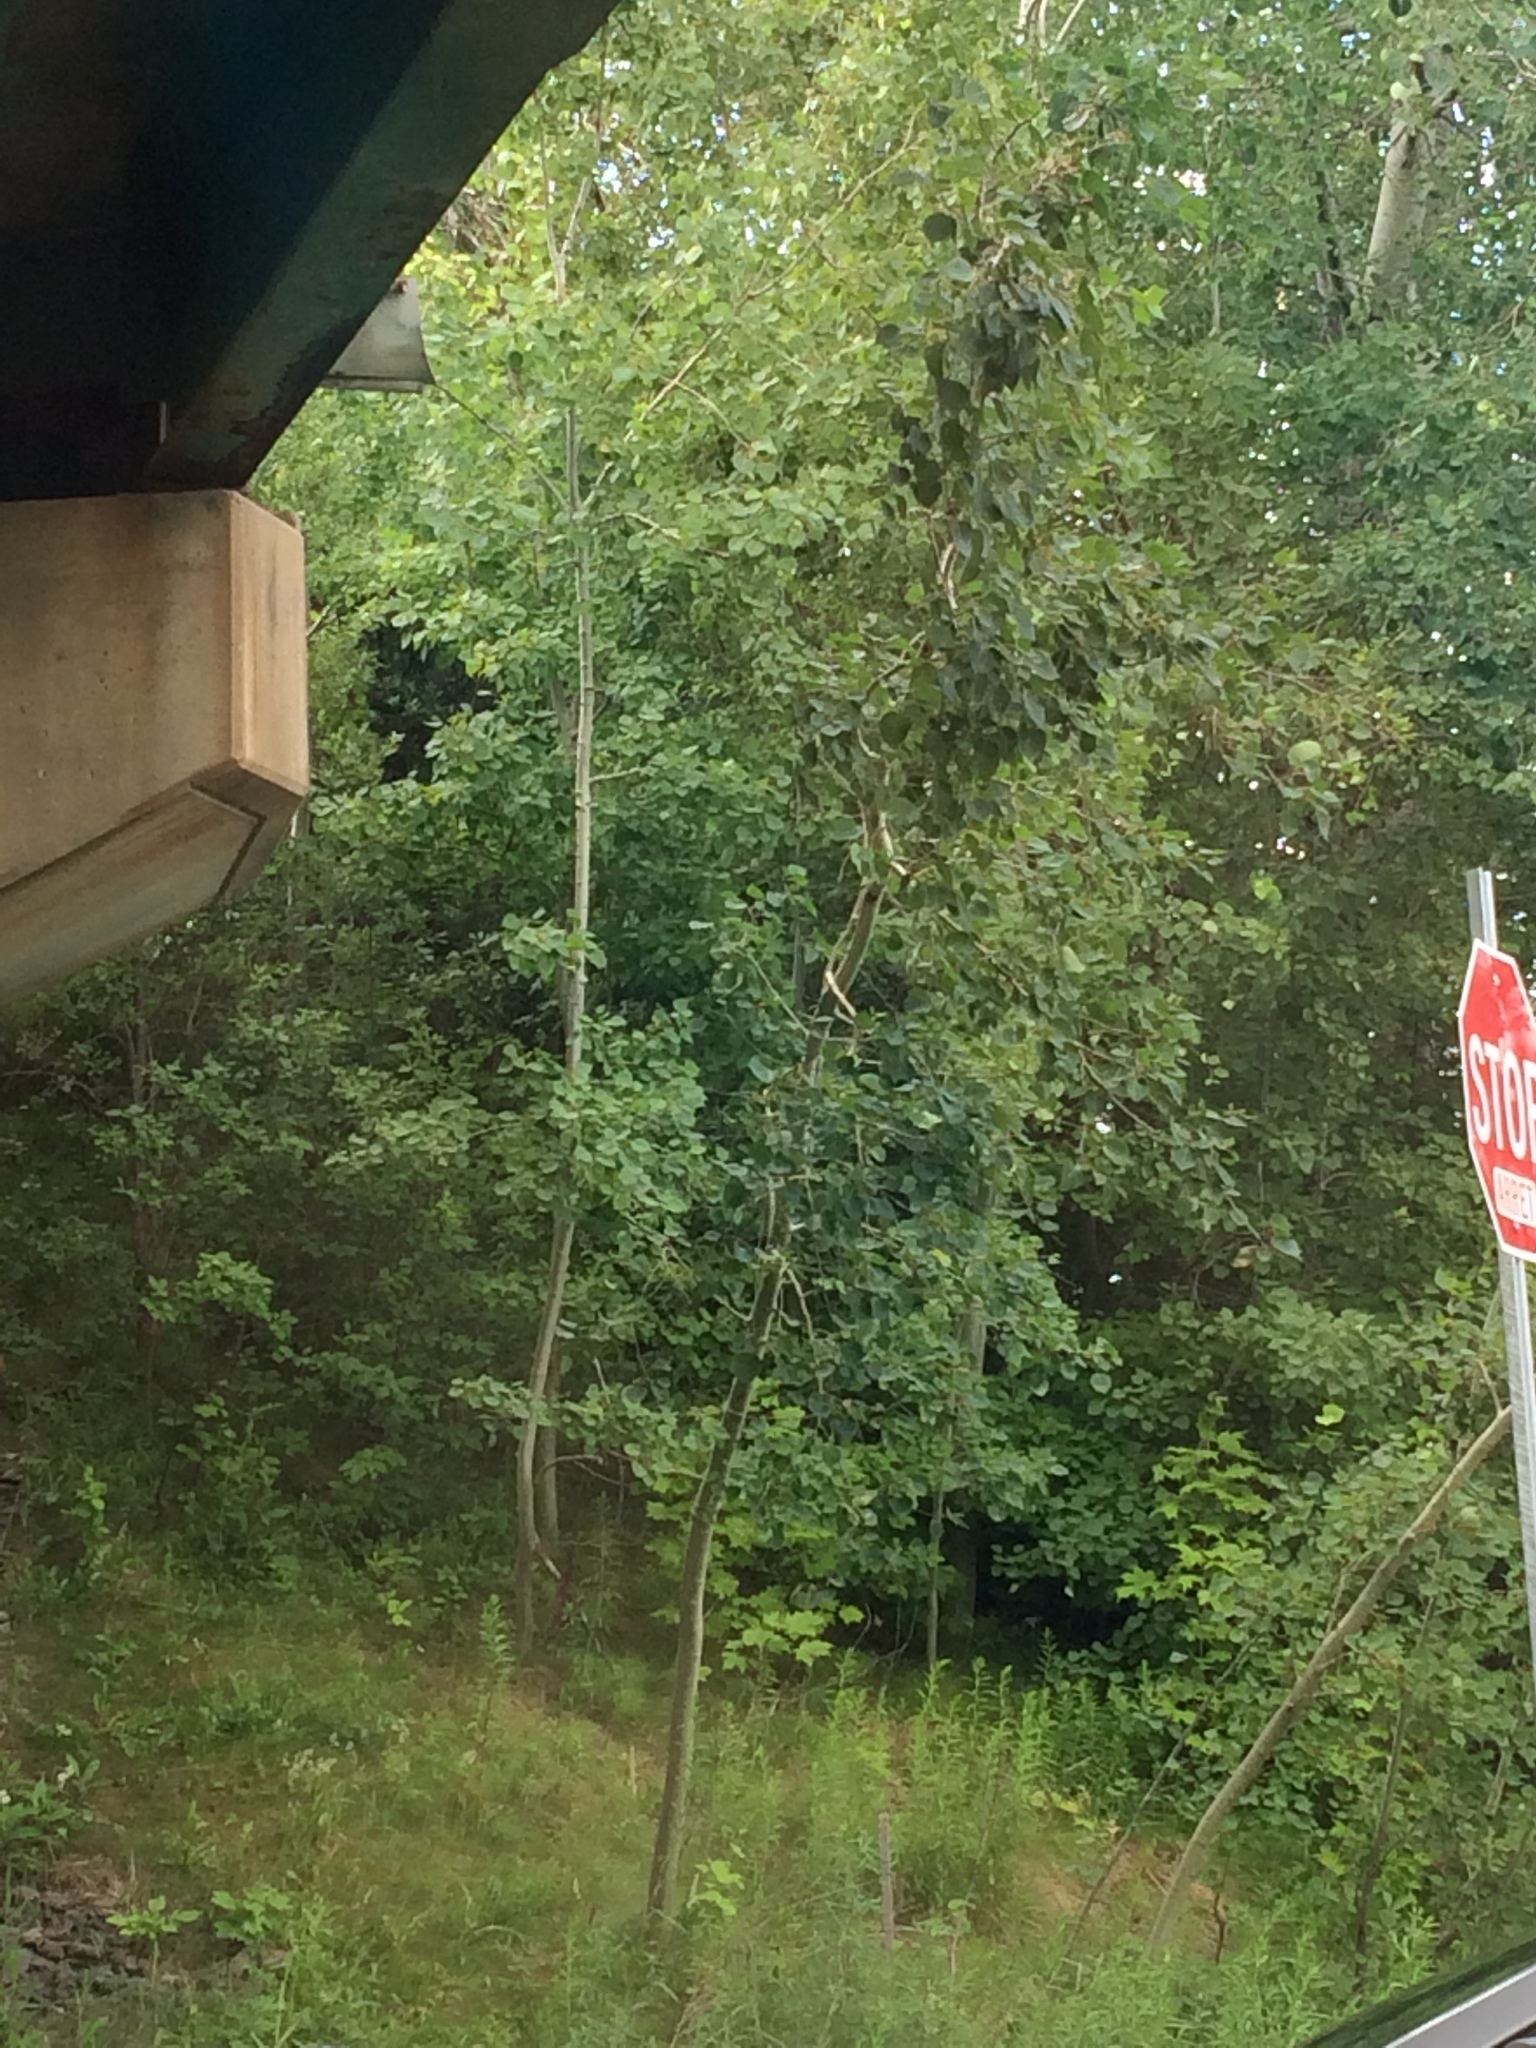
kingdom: Plantae
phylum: Tracheophyta
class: Magnoliopsida
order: Malpighiales
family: Salicaceae
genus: Populus
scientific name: Populus tremuloides
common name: Quaking aspen
